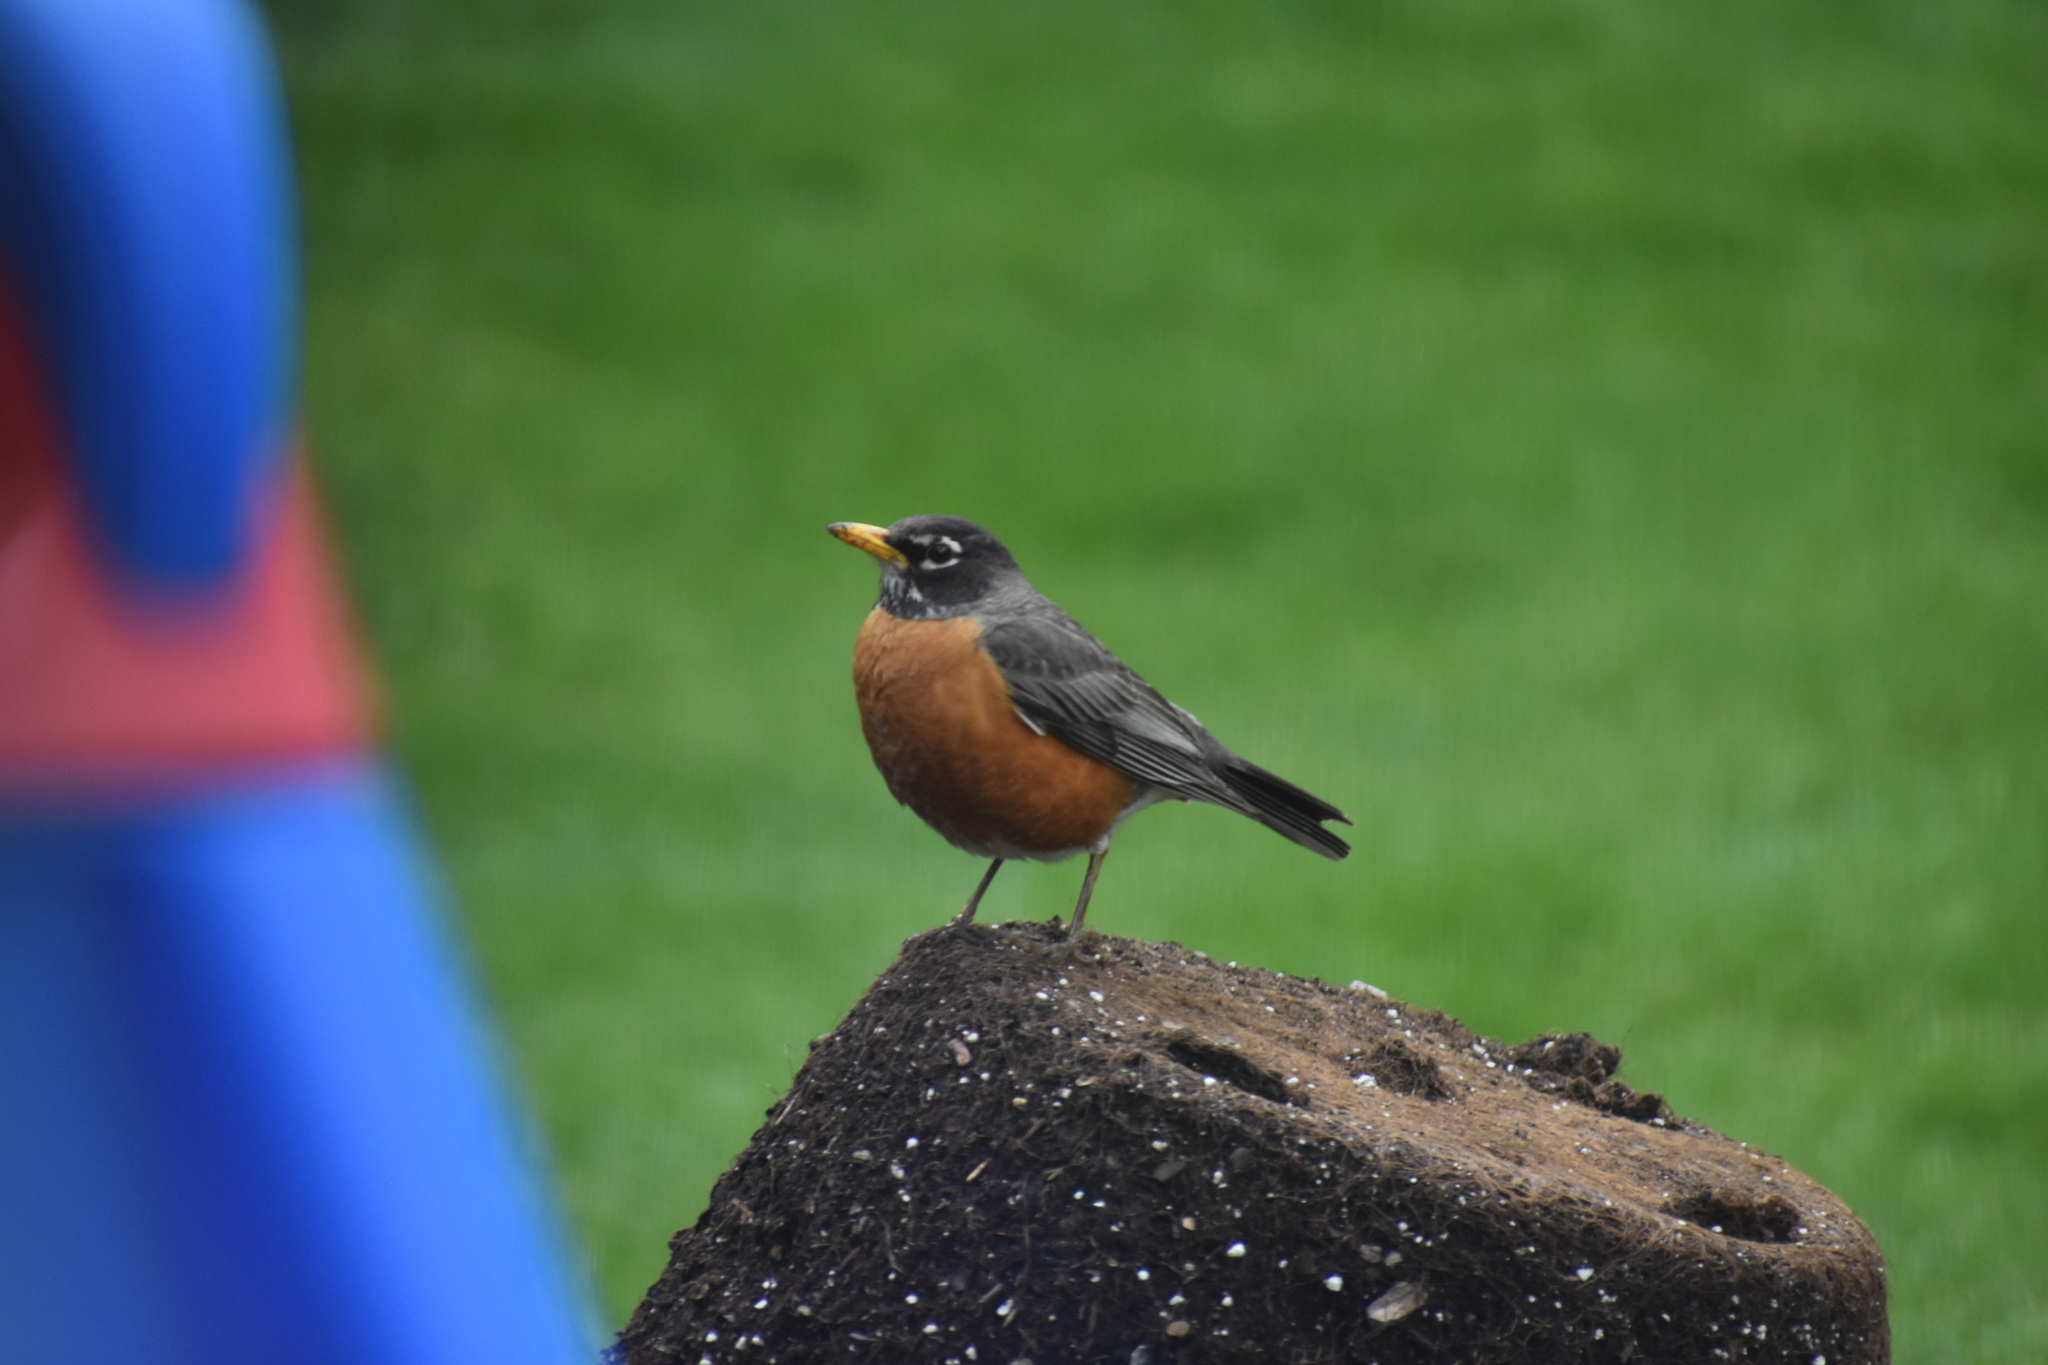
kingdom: Animalia
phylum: Chordata
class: Aves
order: Passeriformes
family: Turdidae
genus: Turdus
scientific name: Turdus migratorius
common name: American robin
